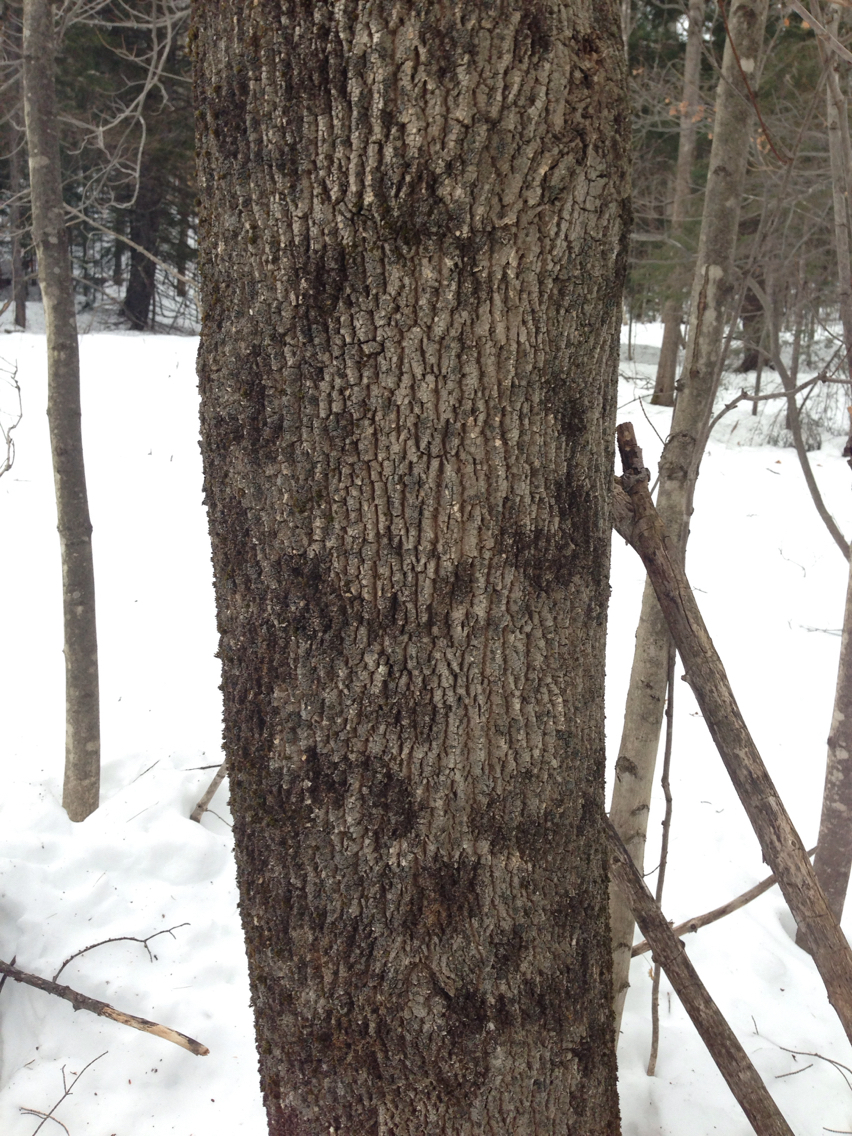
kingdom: Plantae
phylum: Tracheophyta
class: Magnoliopsida
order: Lamiales
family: Oleaceae
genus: Fraxinus
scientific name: Fraxinus americana
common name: White ash
